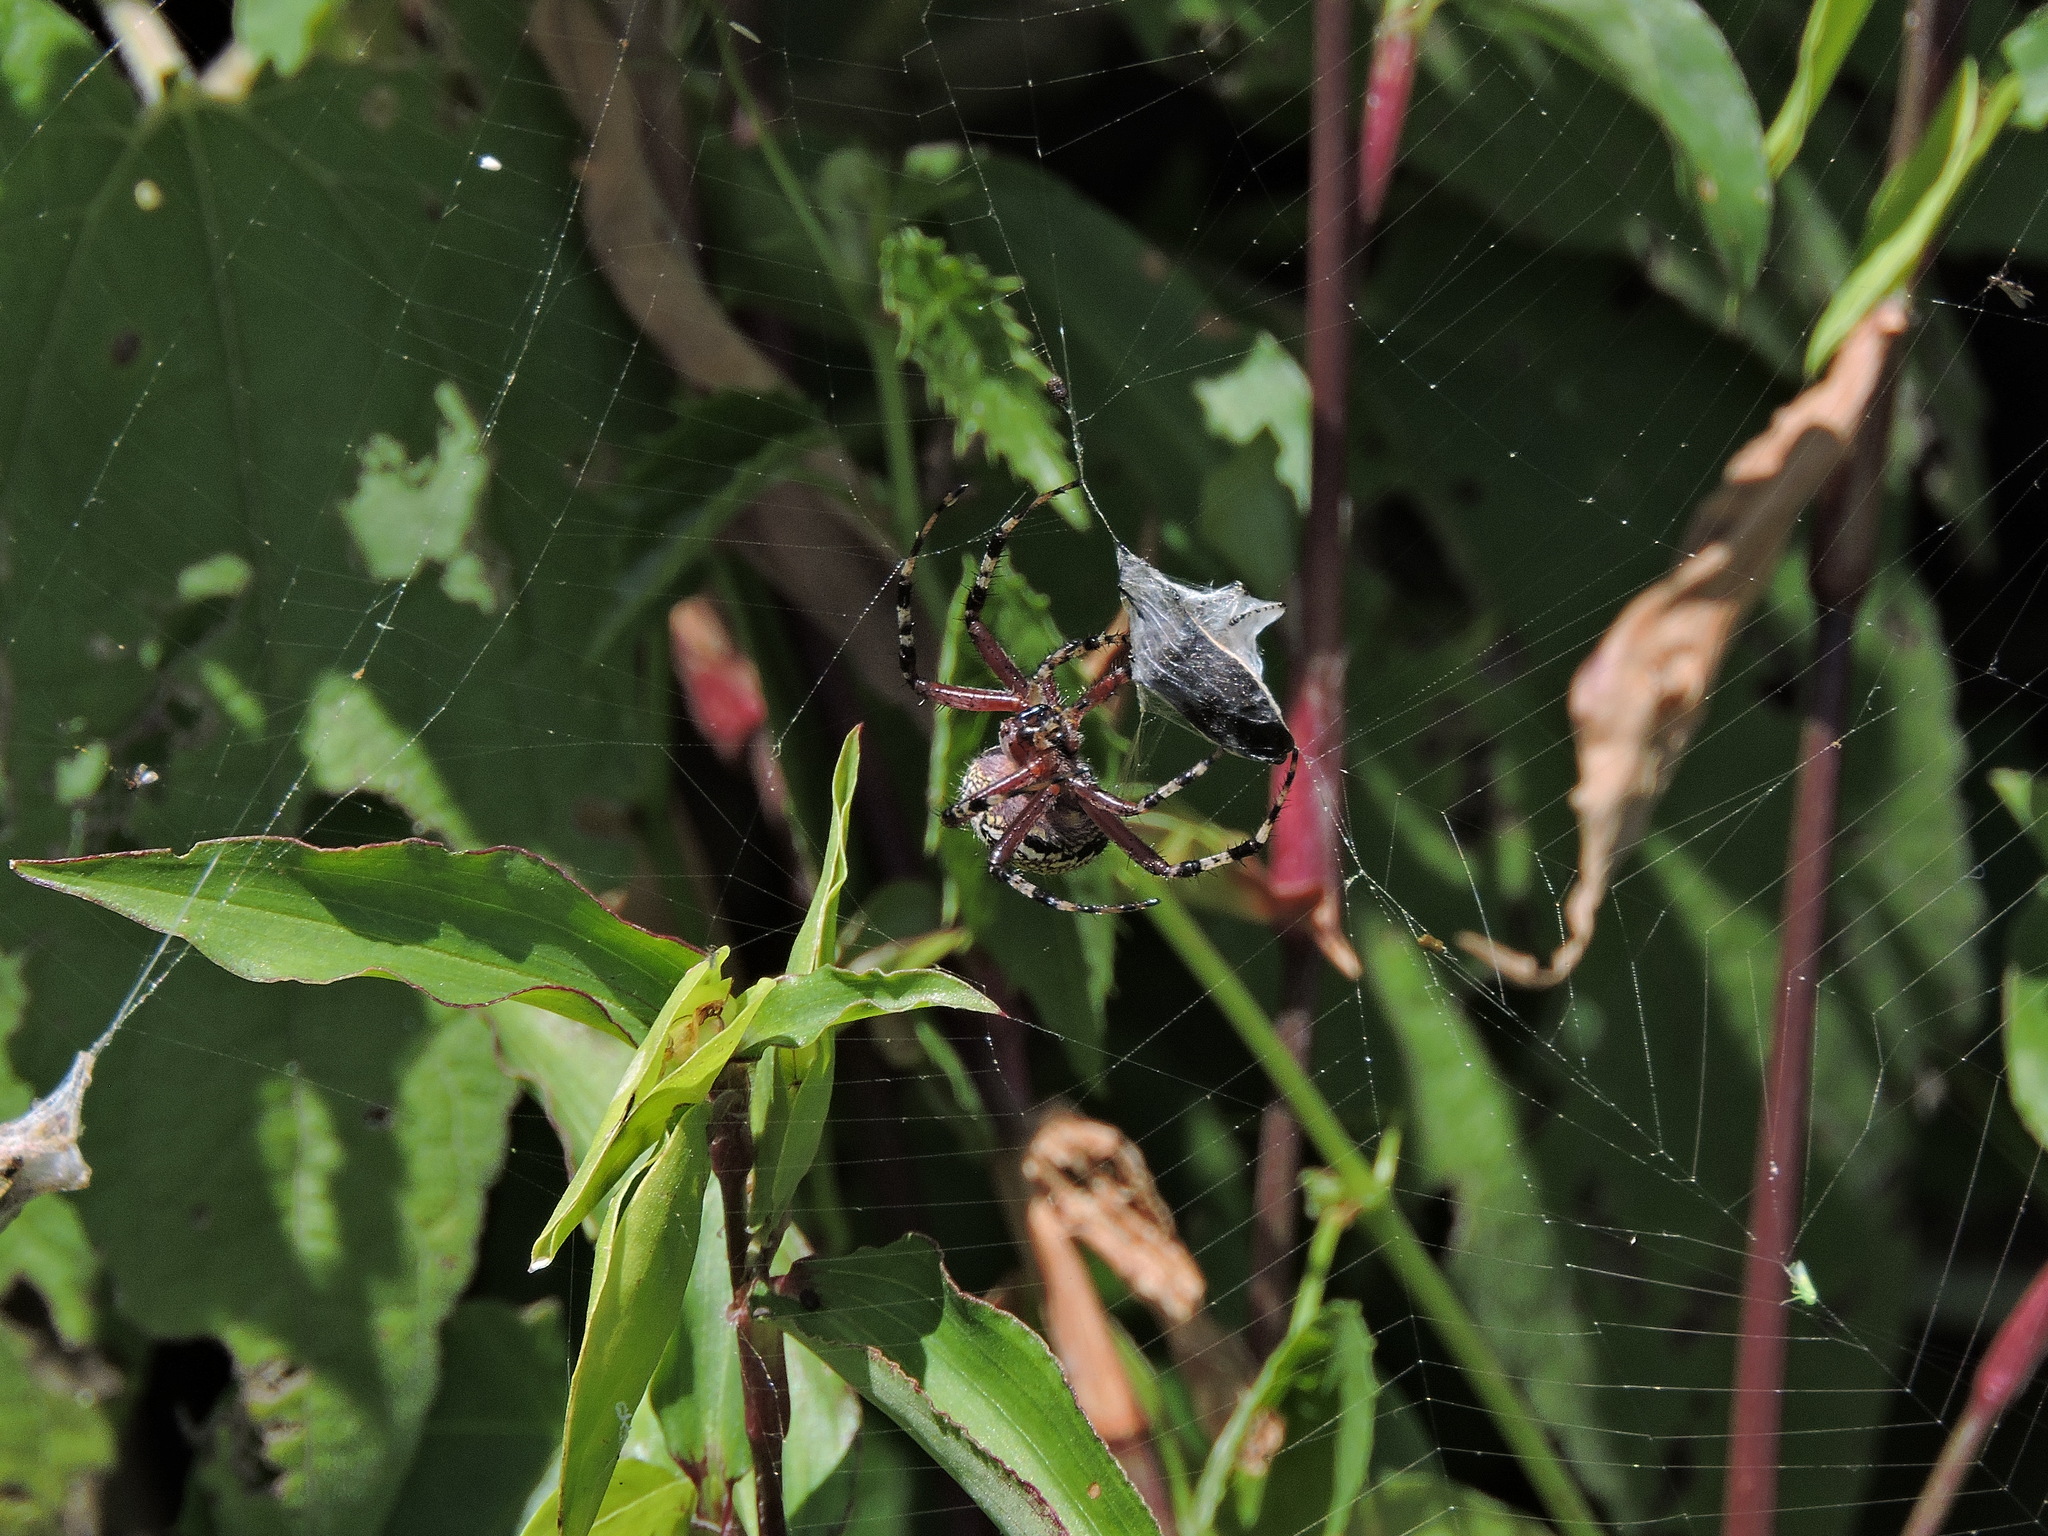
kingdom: Animalia
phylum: Arthropoda
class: Arachnida
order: Araneae
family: Araneidae
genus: Neoscona
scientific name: Neoscona oaxacensis
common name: Orb weavers
